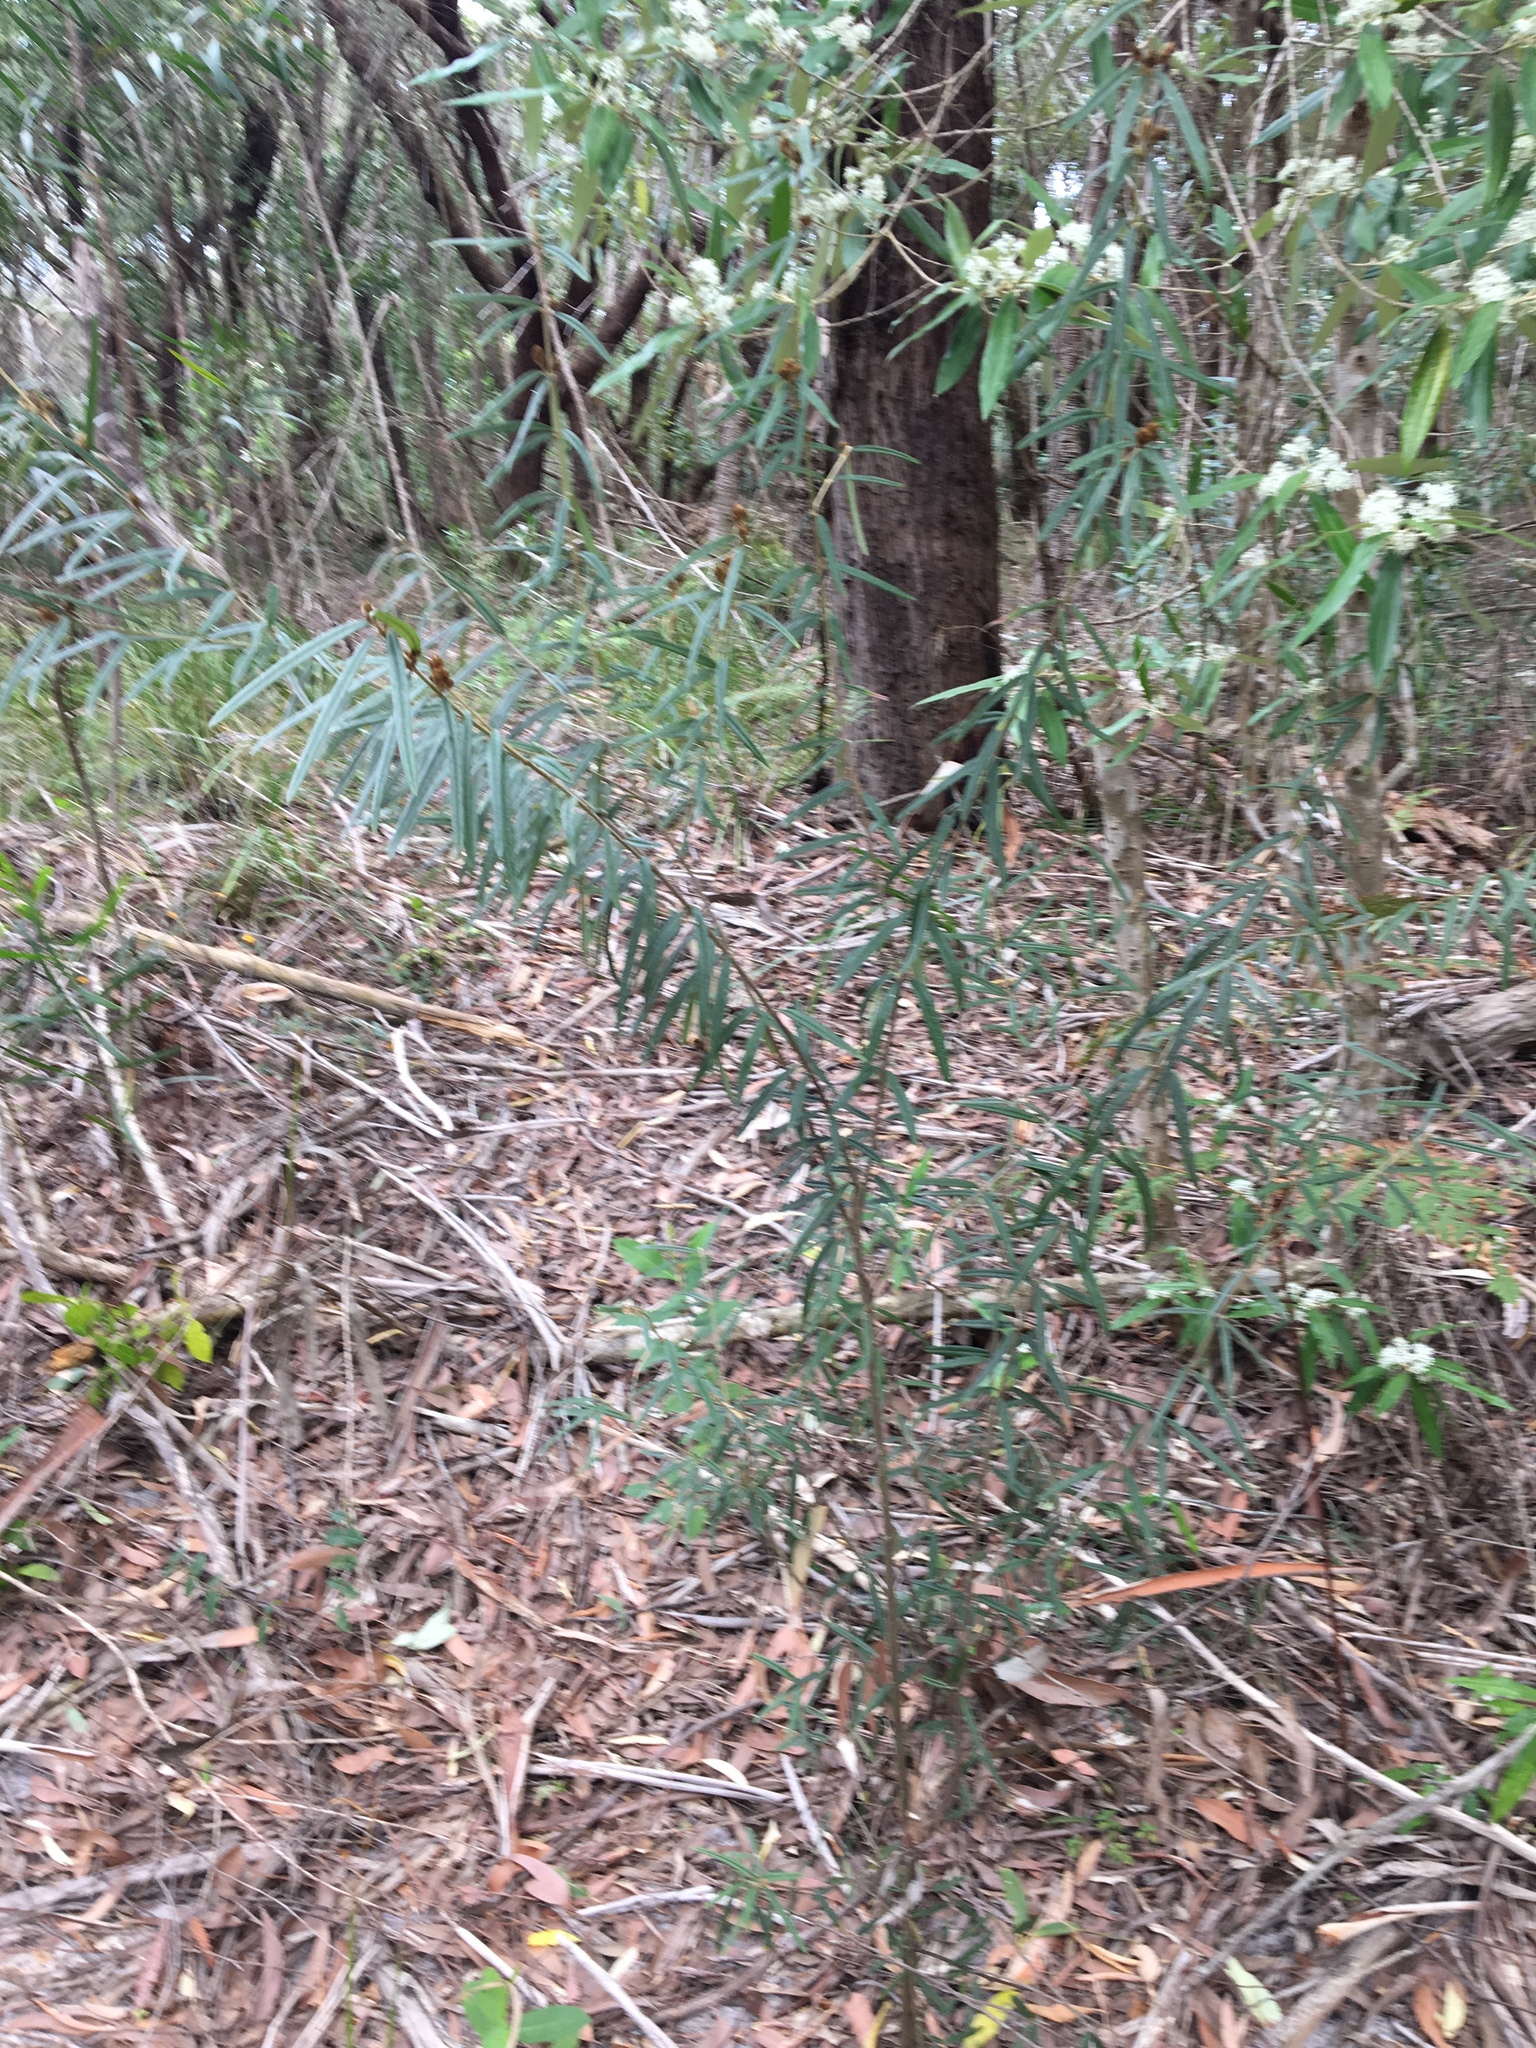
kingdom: Plantae
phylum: Tracheophyta
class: Magnoliopsida
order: Apiales
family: Araliaceae
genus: Astrotricha
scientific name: Astrotricha longifolia
